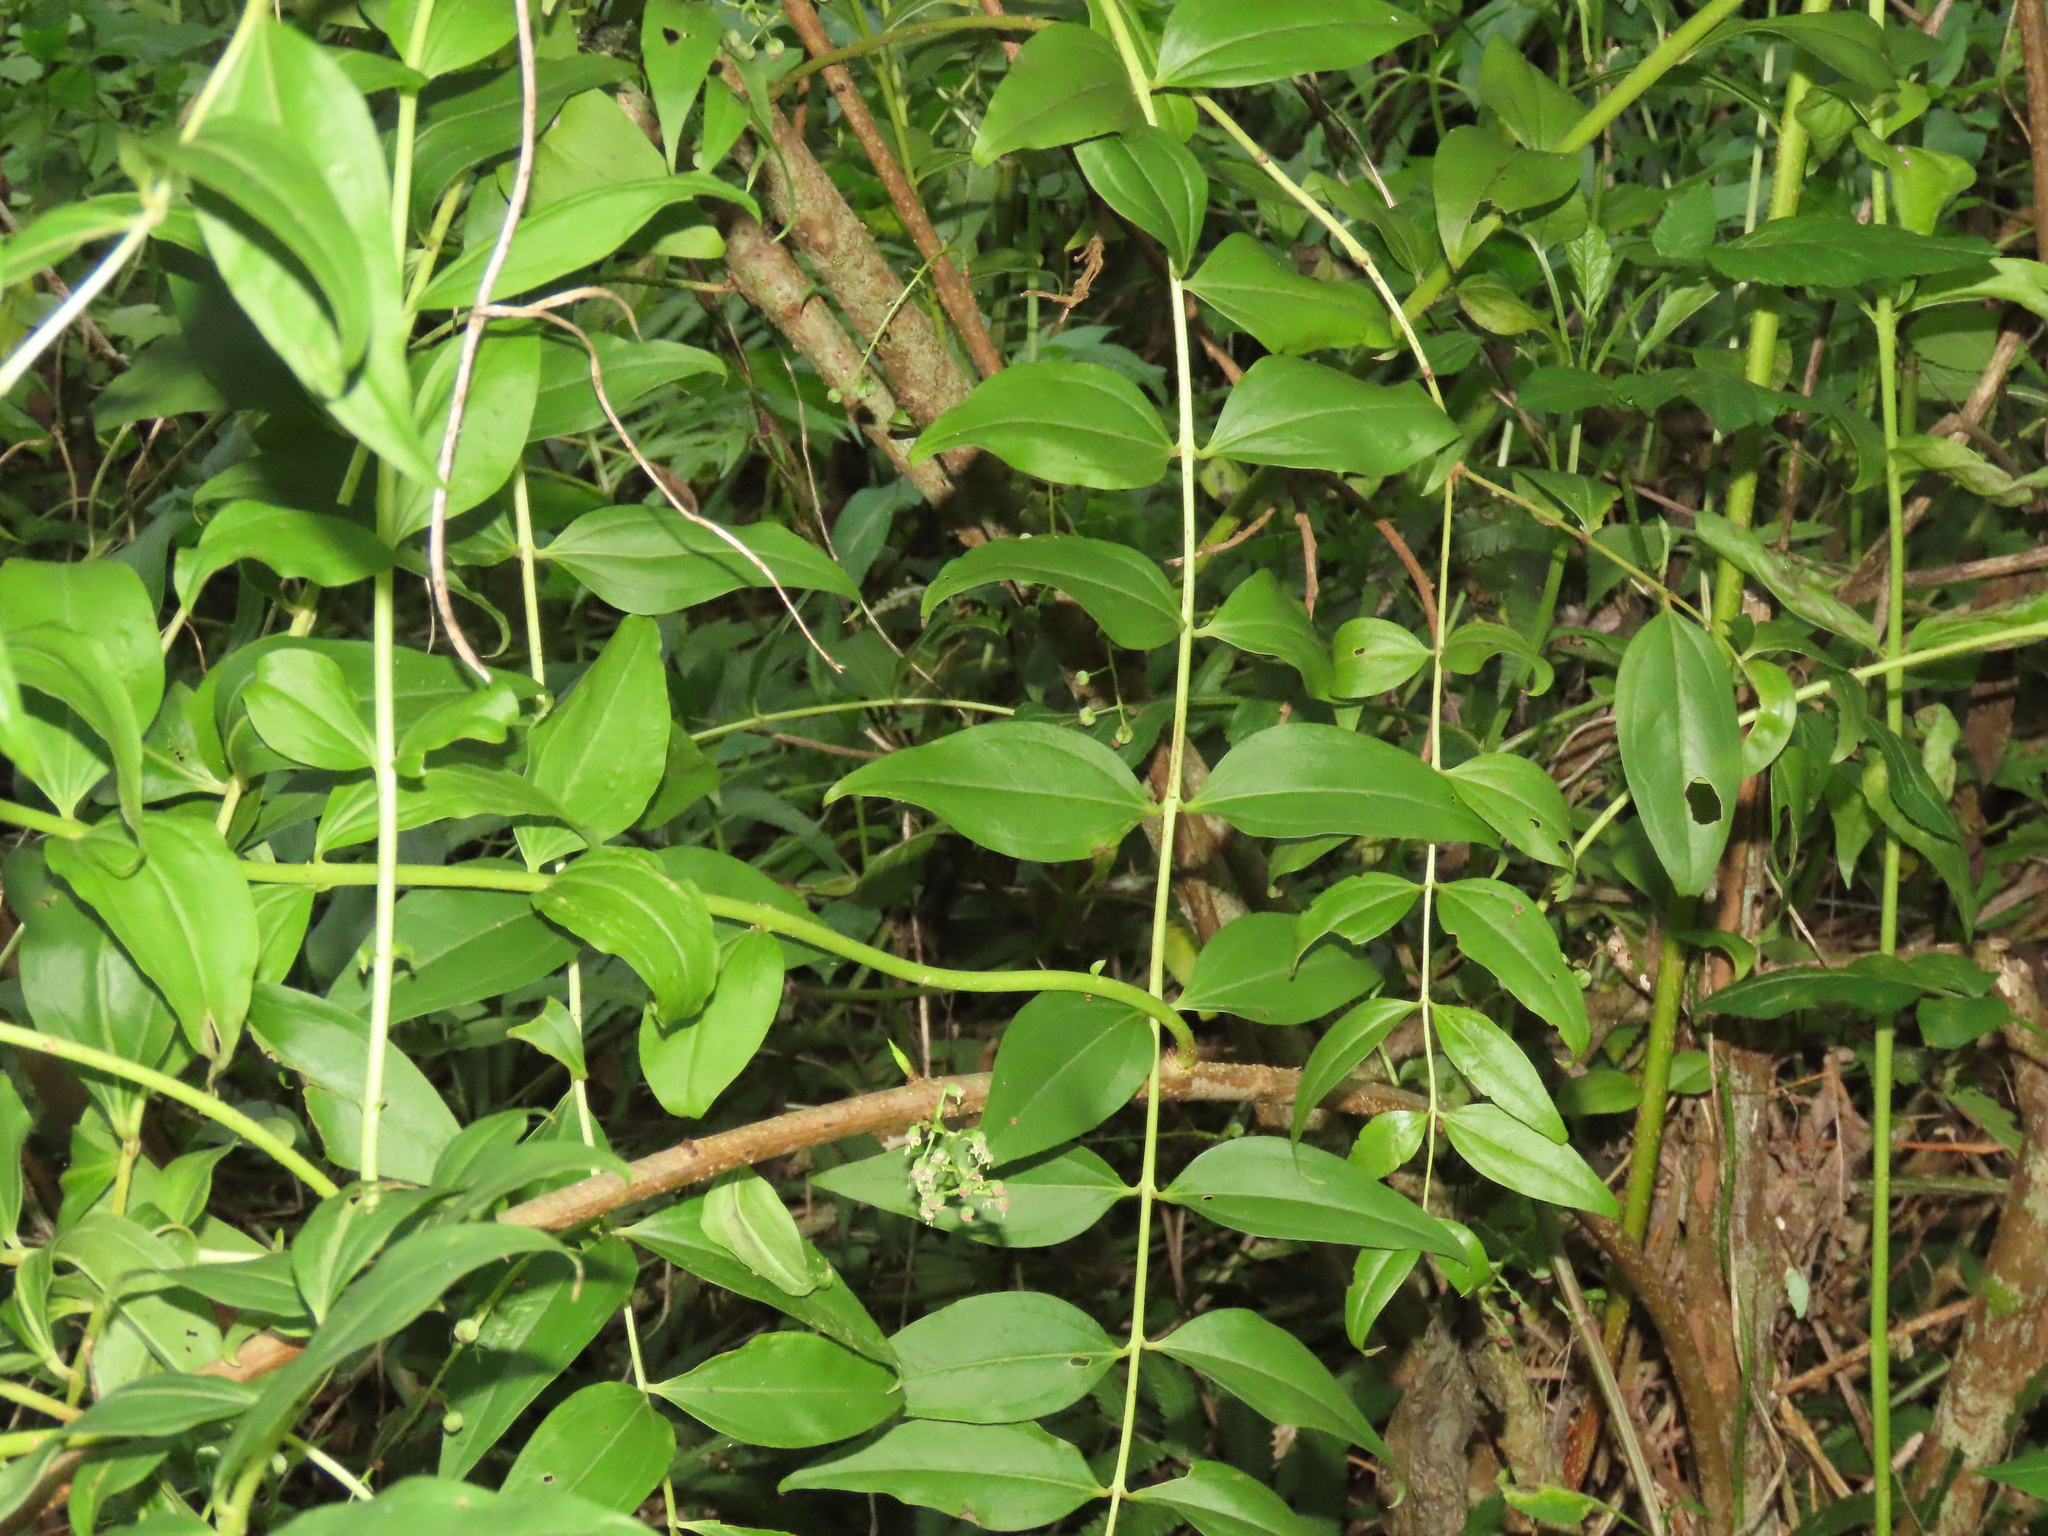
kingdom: Plantae
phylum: Tracheophyta
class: Magnoliopsida
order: Cucurbitales
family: Coriariaceae
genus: Coriaria
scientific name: Coriaria japonica
